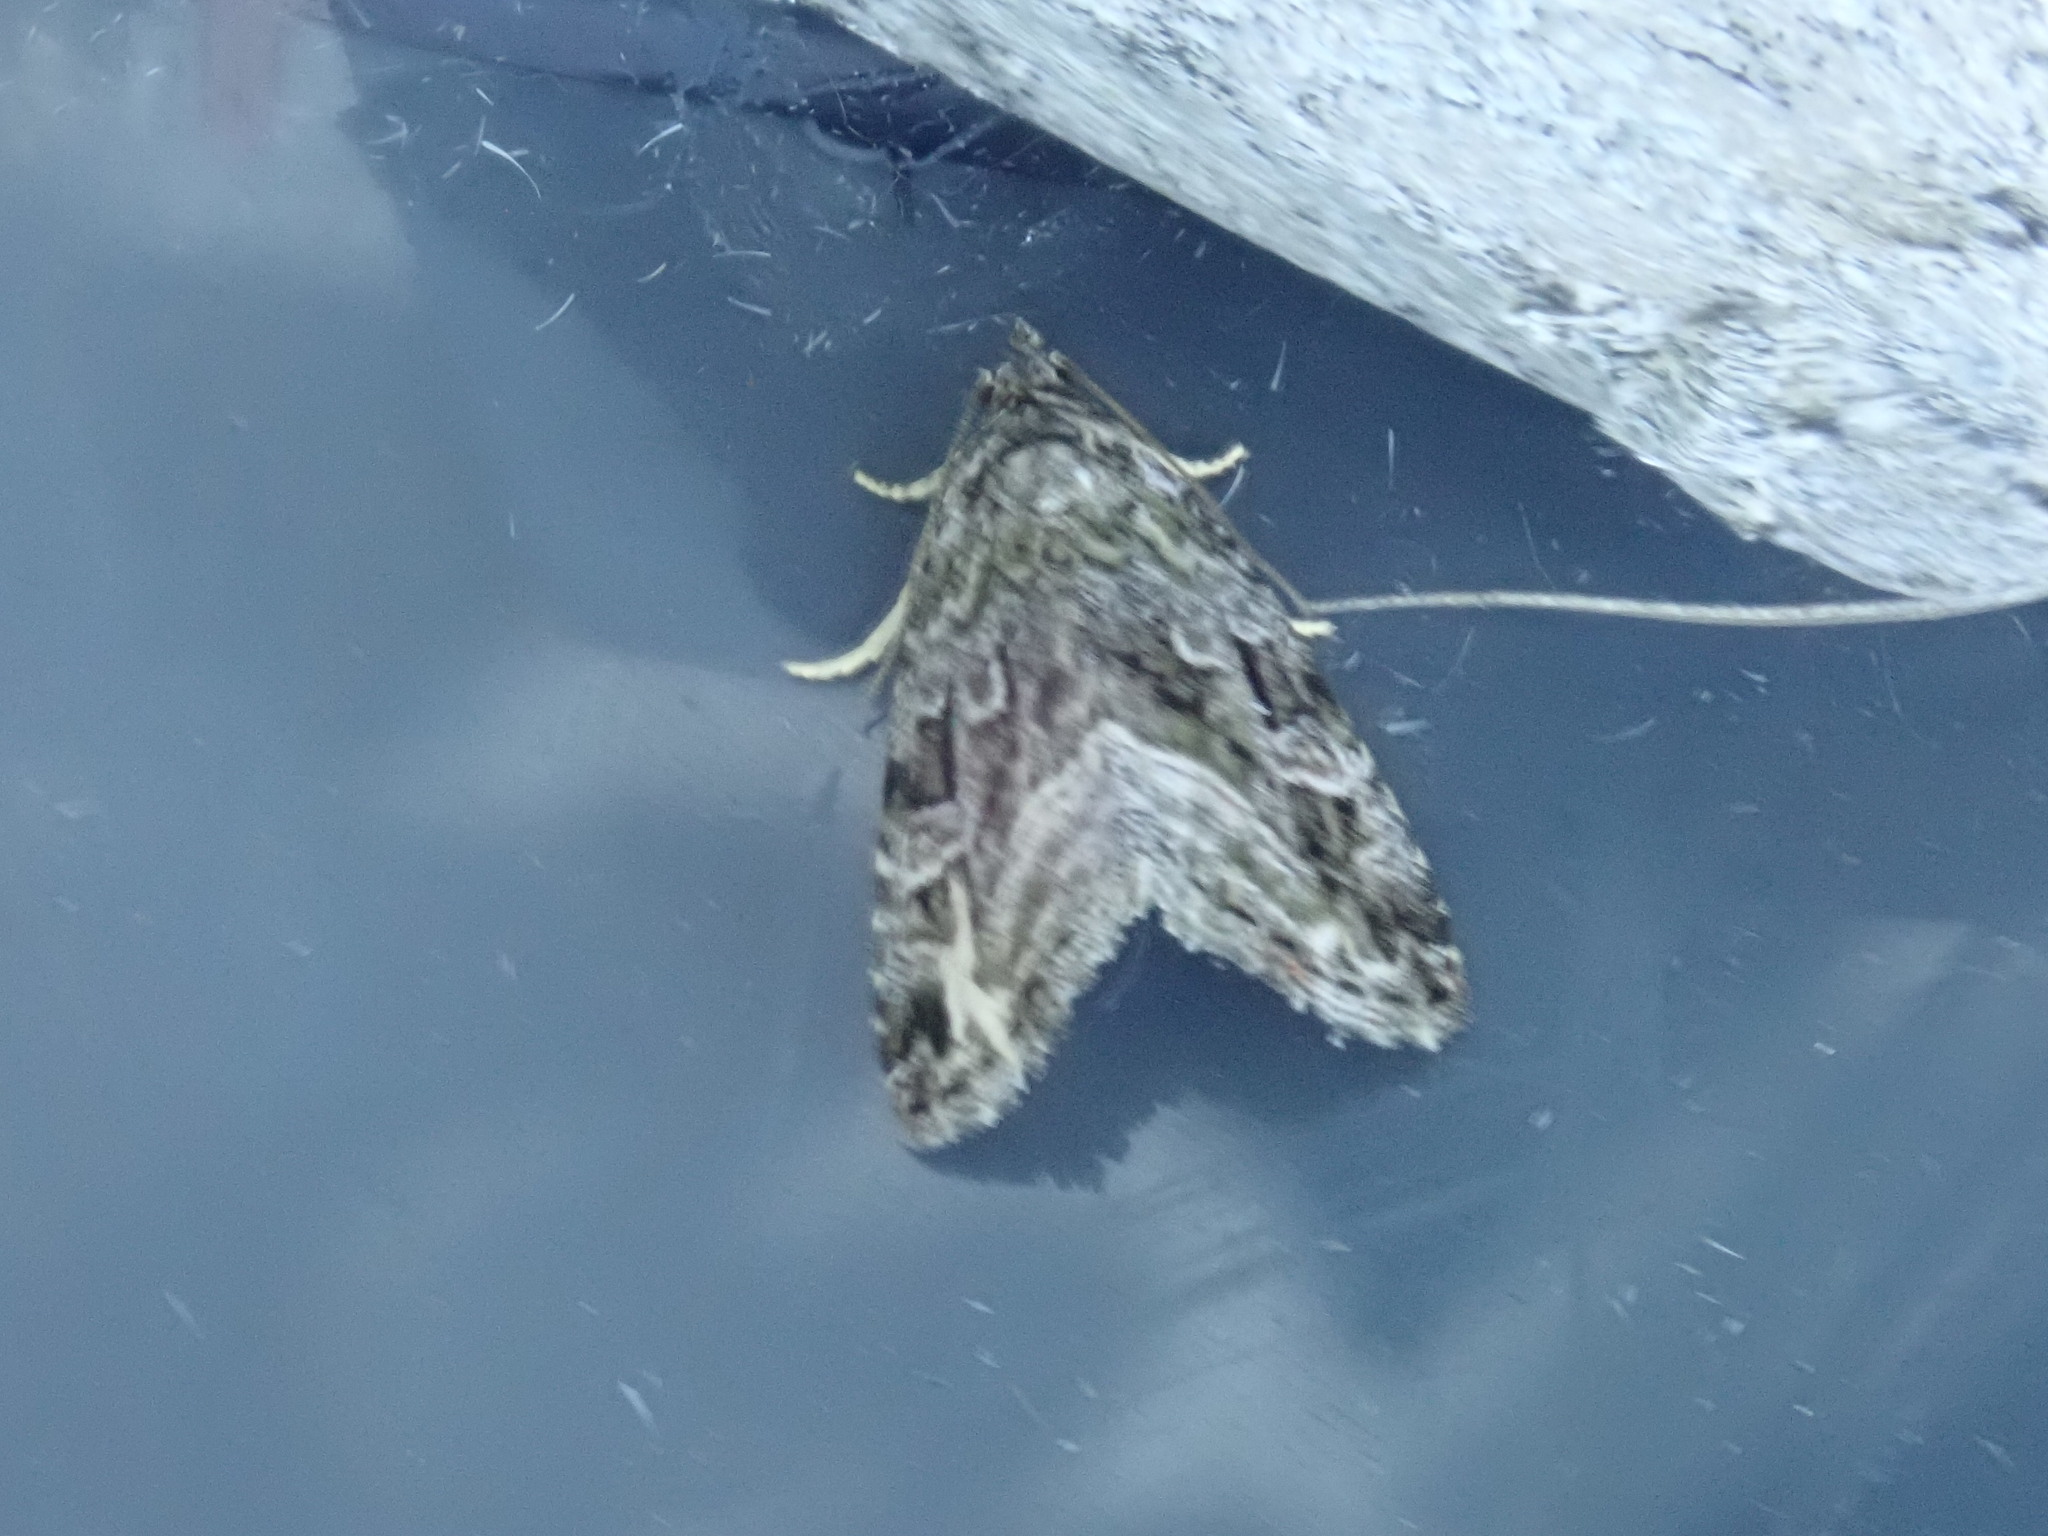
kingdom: Animalia
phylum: Arthropoda
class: Insecta
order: Lepidoptera
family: Noctuidae
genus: Protodeltote
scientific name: Protodeltote muscosula
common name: Large mossy glyph
